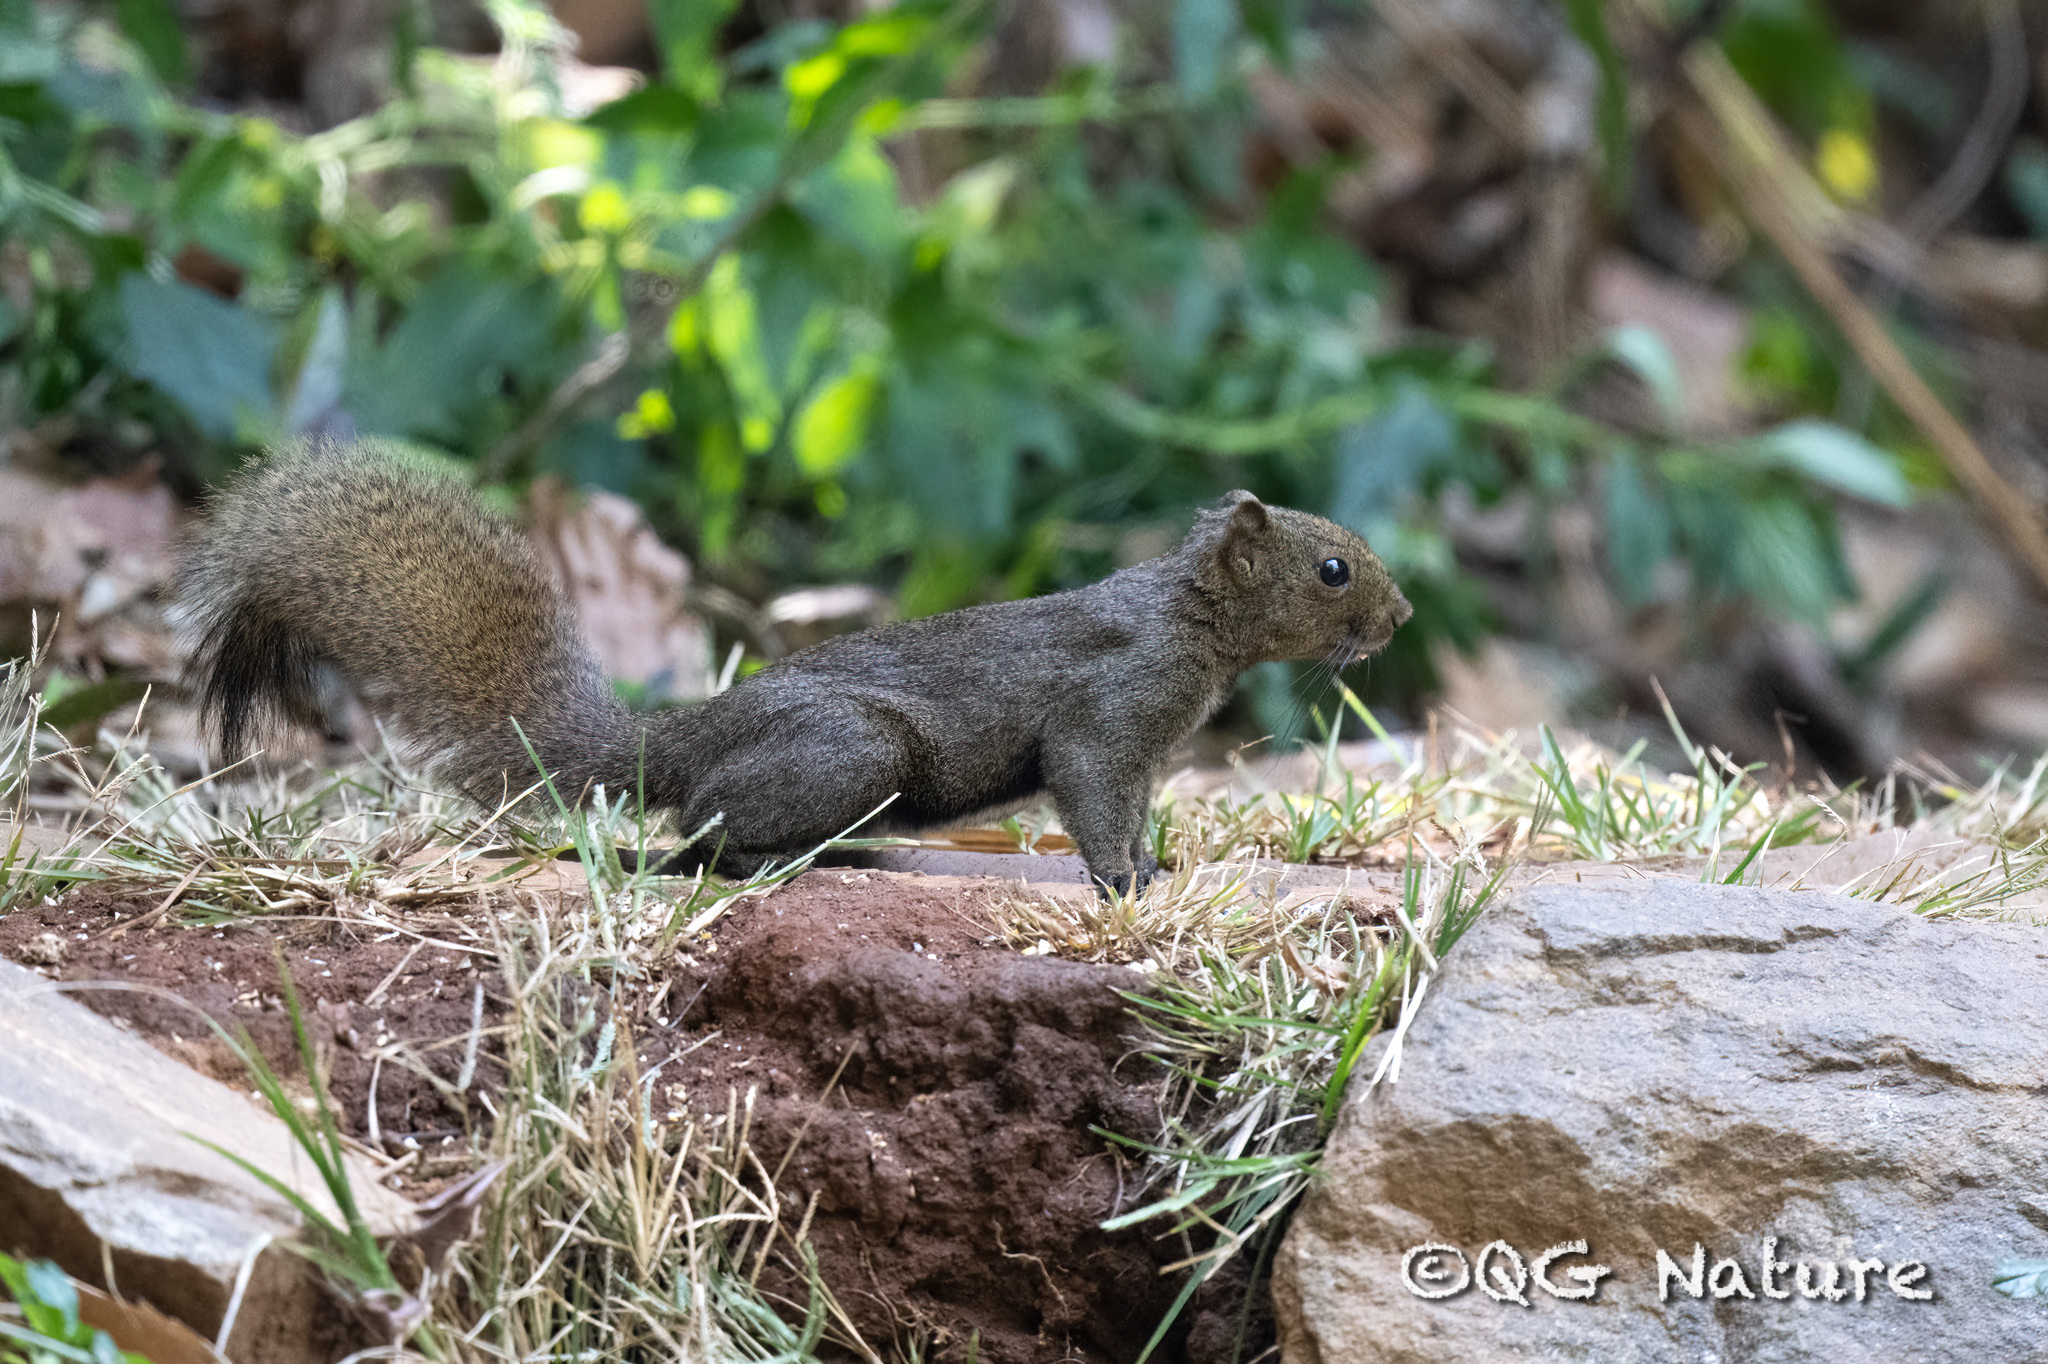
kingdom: Animalia
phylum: Chordata
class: Mammalia
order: Rodentia
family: Sciuridae
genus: Callosciurus
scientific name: Callosciurus quinquestriatus
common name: Anderson's squirrel
